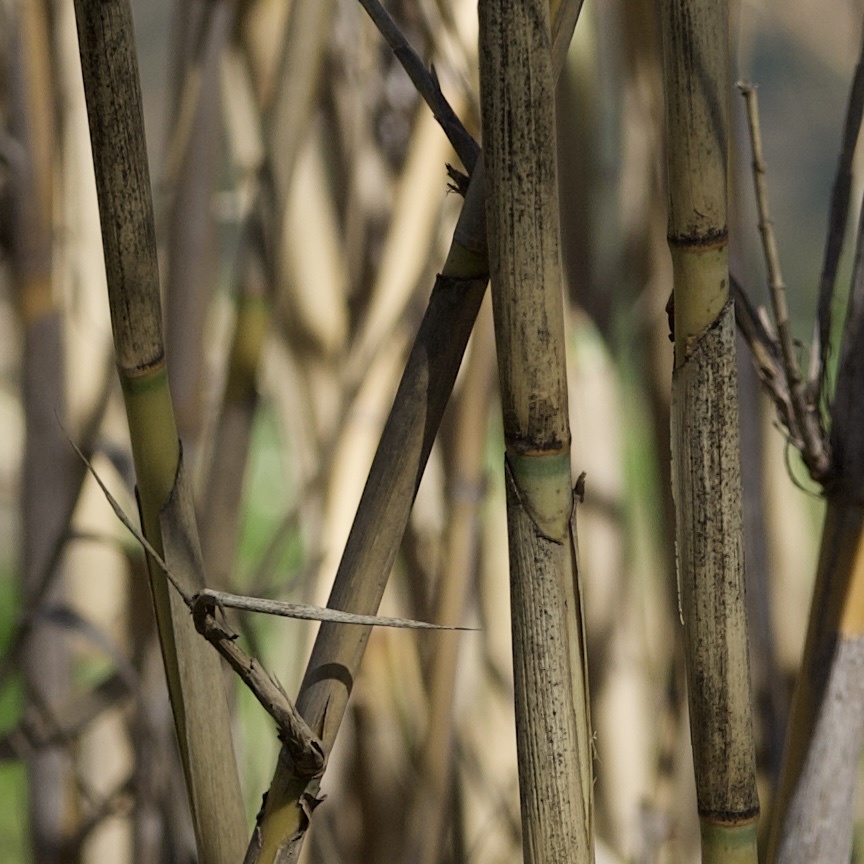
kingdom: Plantae
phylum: Tracheophyta
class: Liliopsida
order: Poales
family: Poaceae
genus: Arundo
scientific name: Arundo donax
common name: Giant reed
